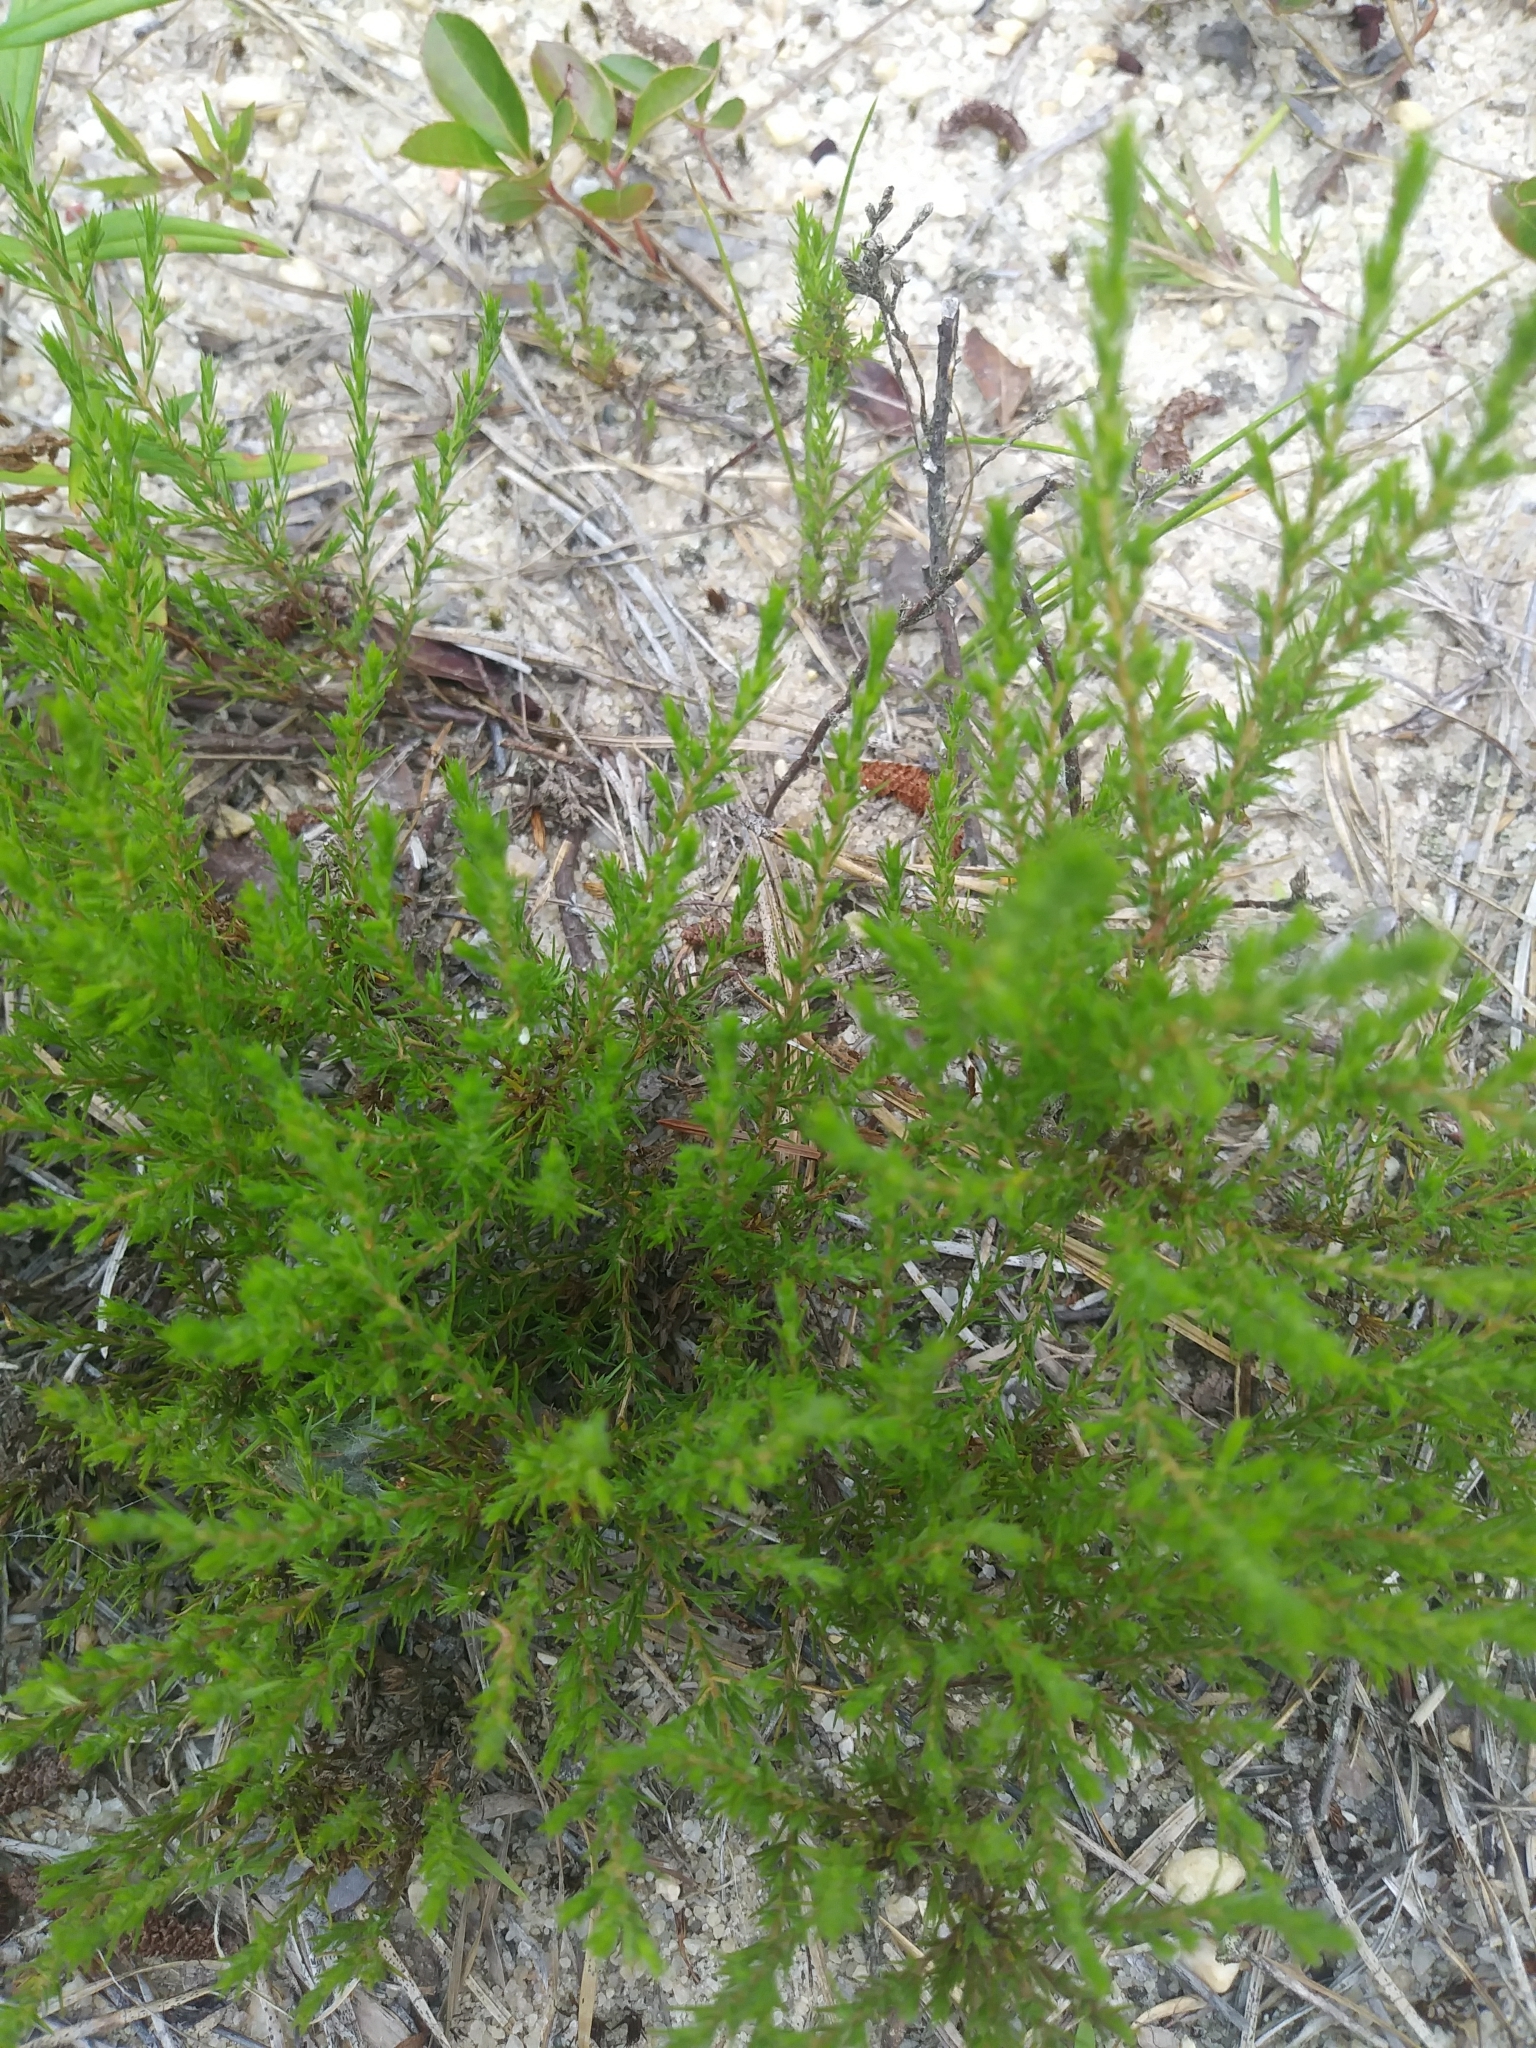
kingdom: Plantae
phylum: Tracheophyta
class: Magnoliopsida
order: Malvales
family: Cistaceae
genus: Hudsonia
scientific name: Hudsonia ericoides
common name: Golden-heather
